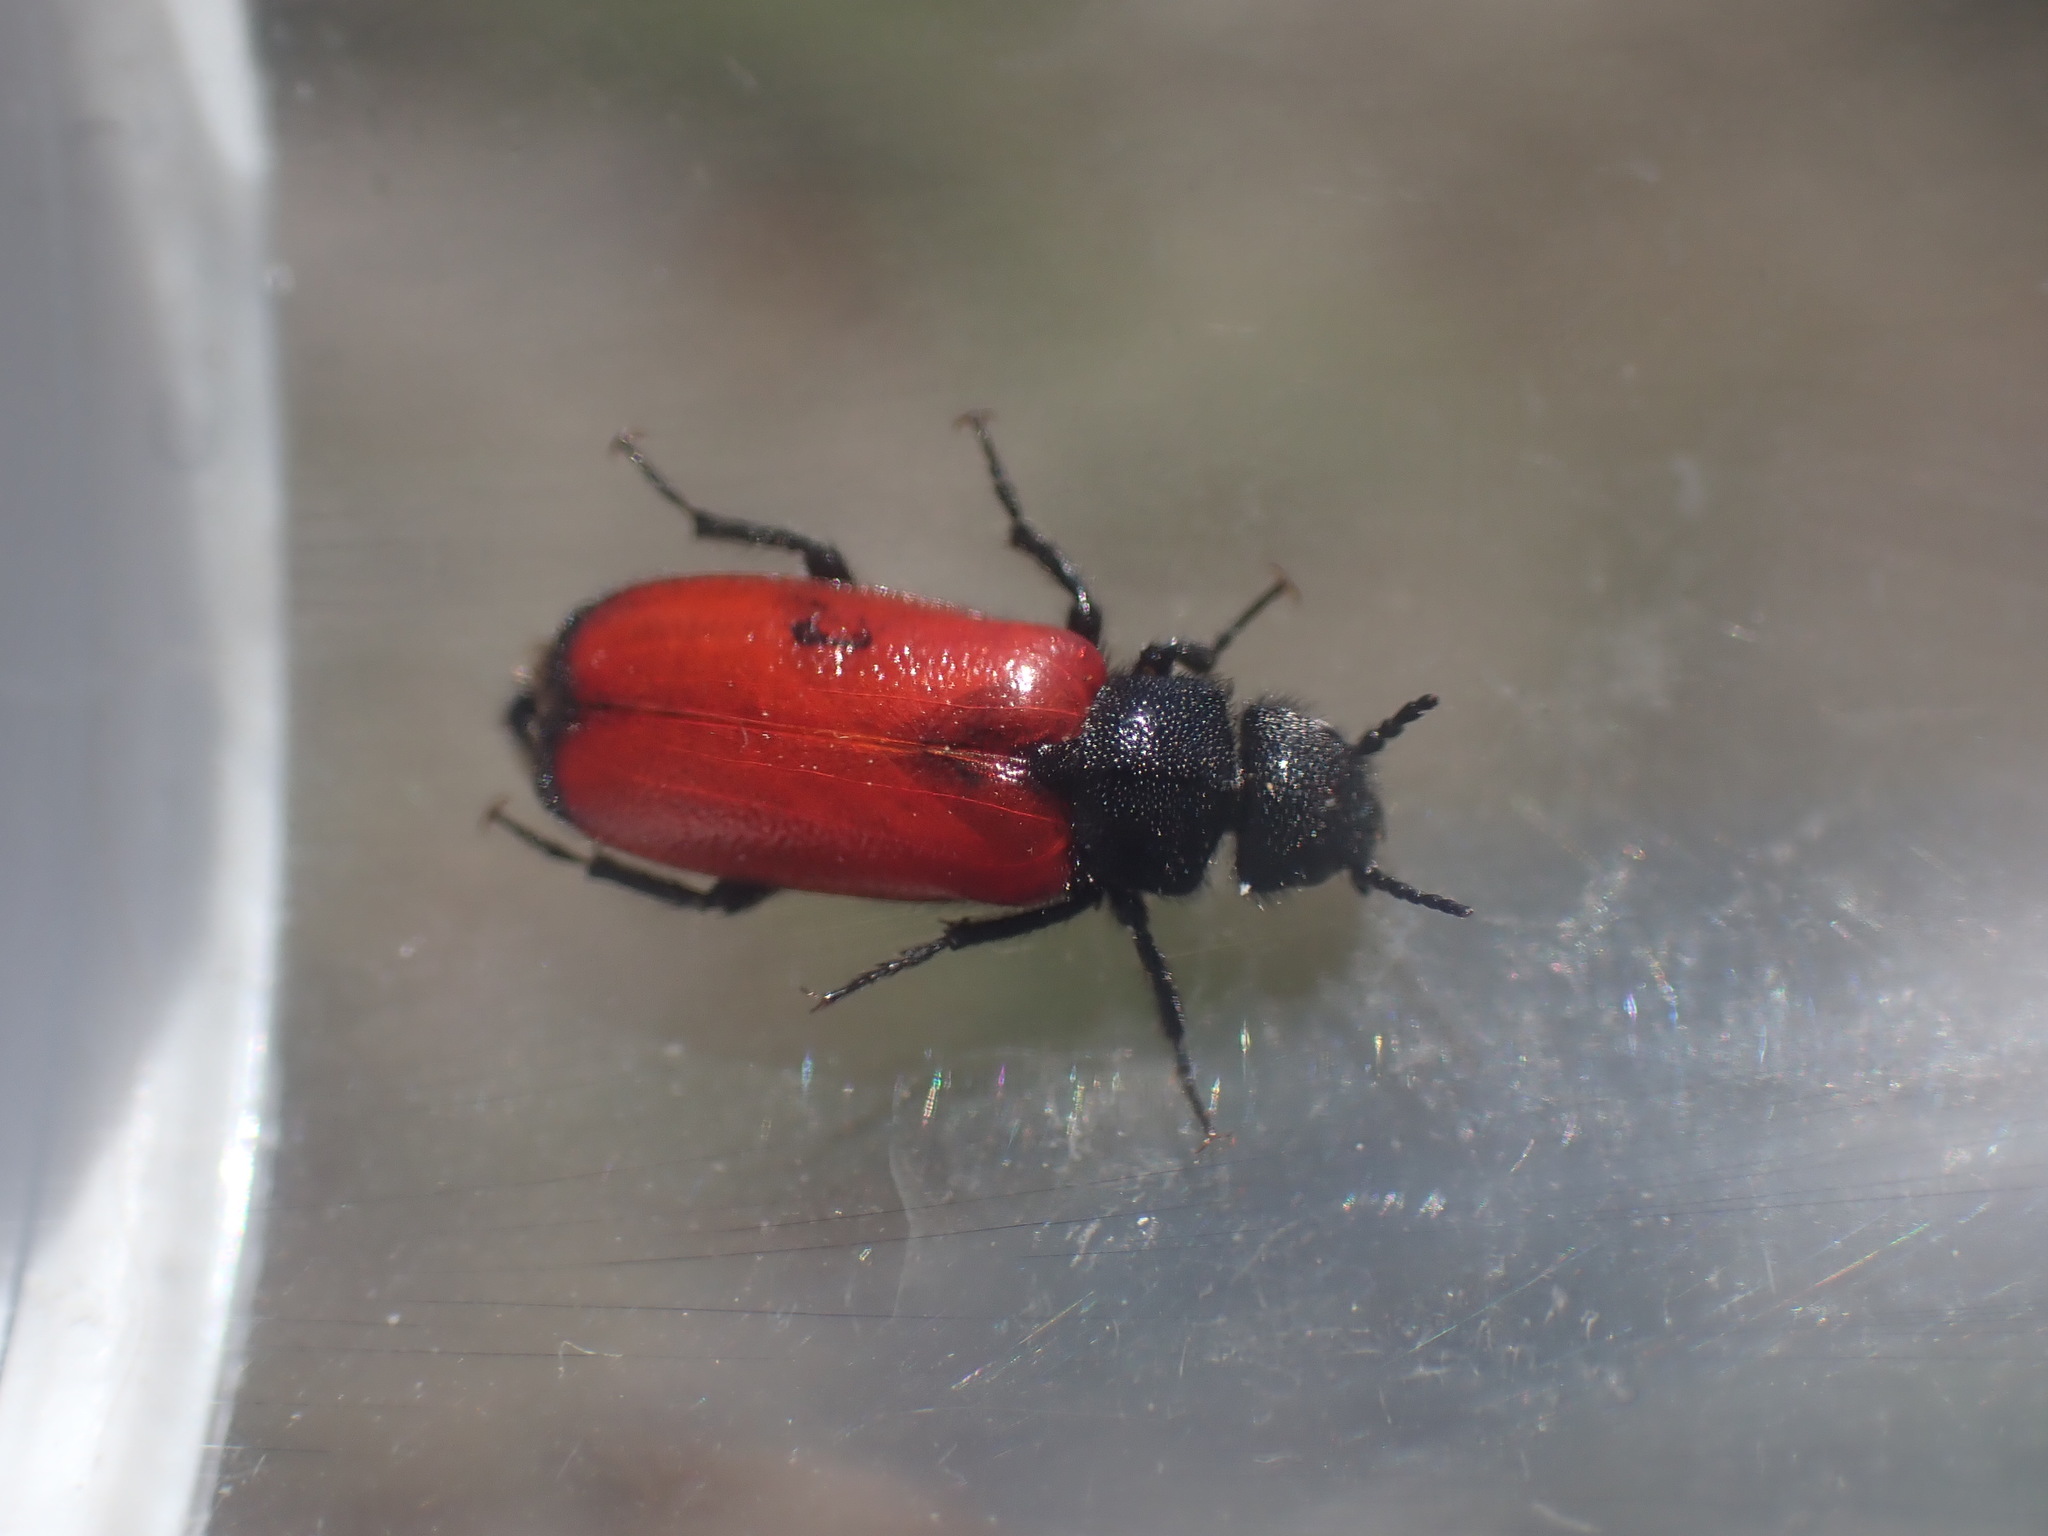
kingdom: Animalia
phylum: Arthropoda
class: Insecta
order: Coleoptera
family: Meloidae
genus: Tricrania
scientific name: Tricrania stansburii
